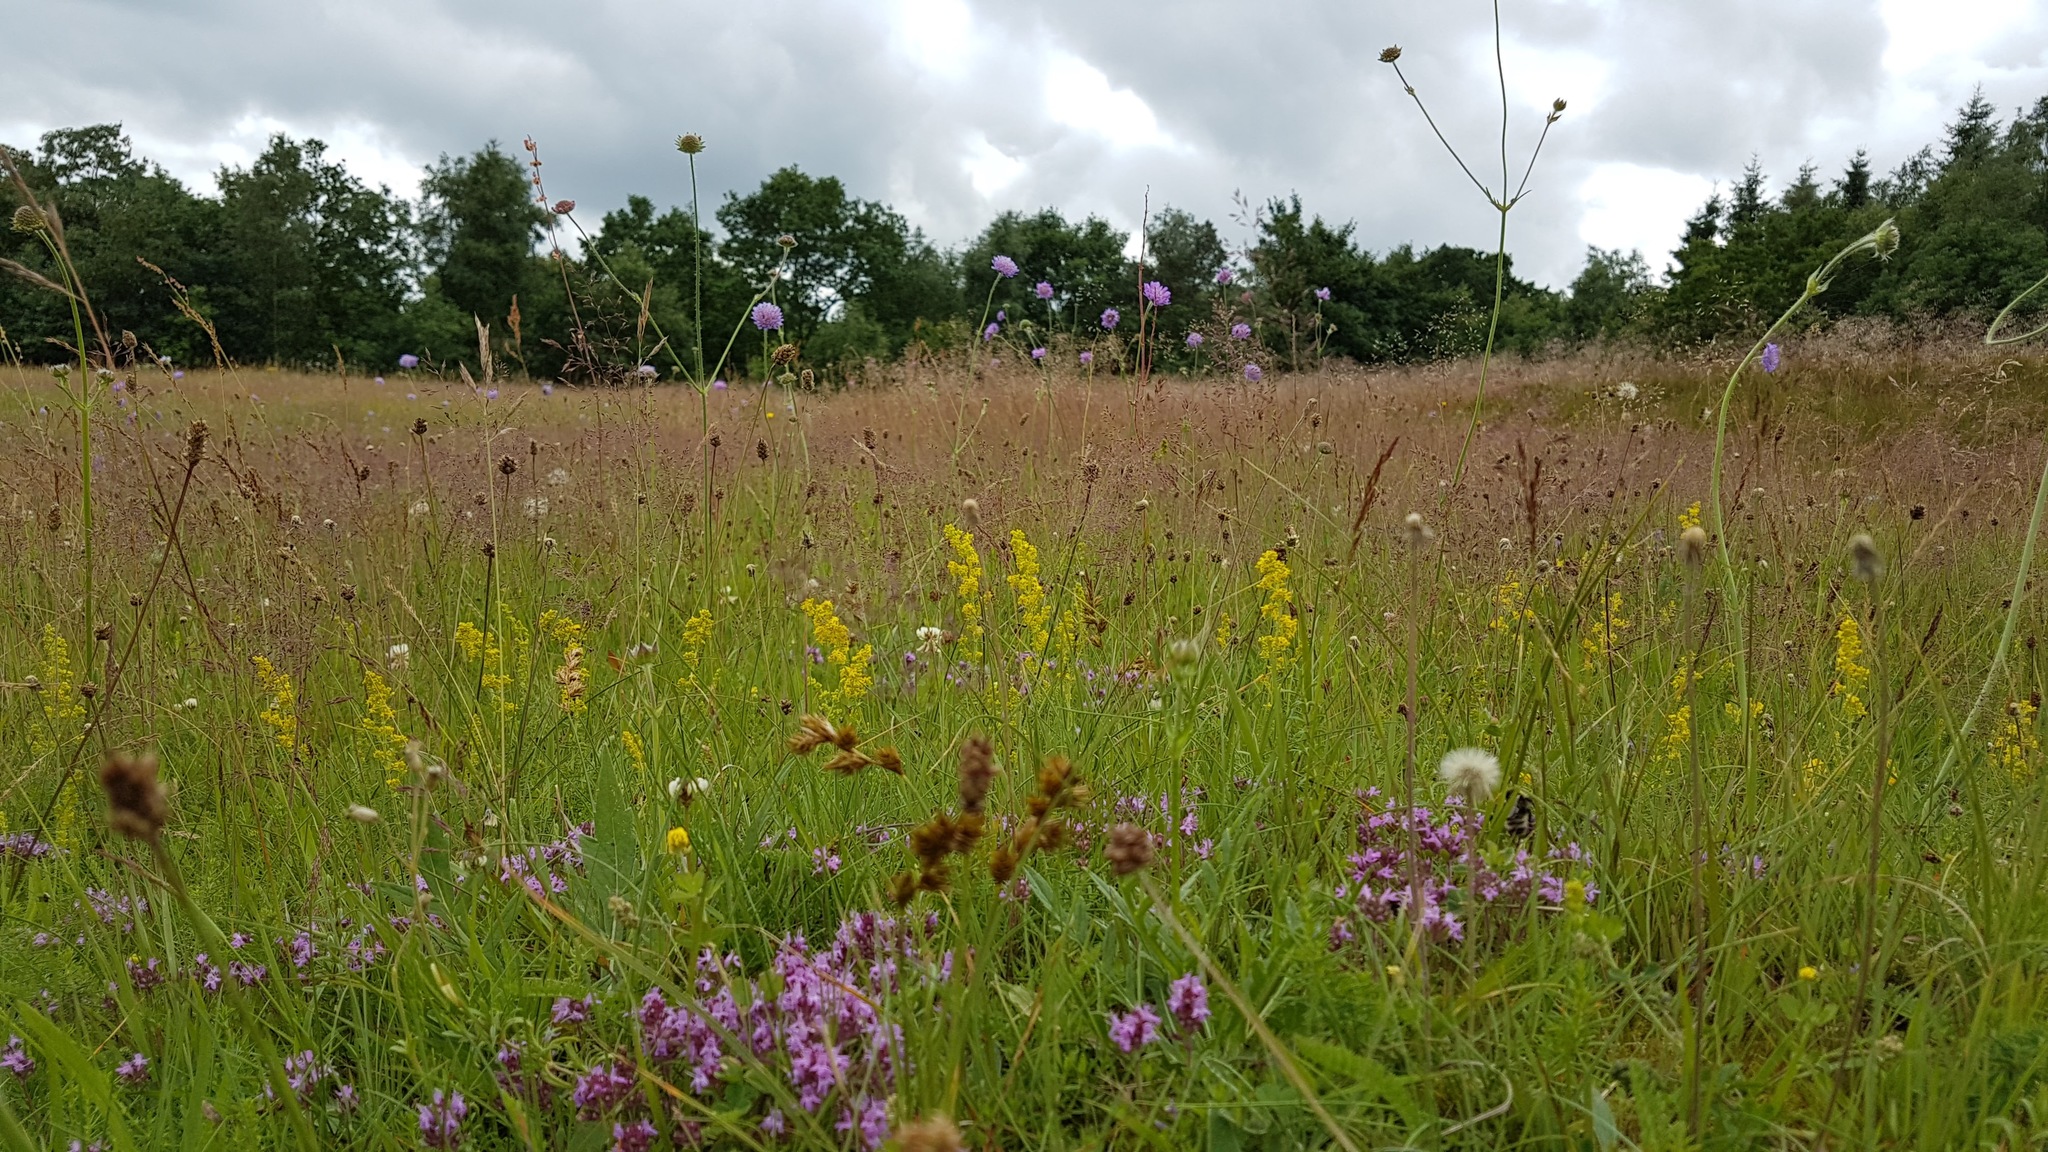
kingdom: Plantae
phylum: Tracheophyta
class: Magnoliopsida
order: Gentianales
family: Rubiaceae
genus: Galium
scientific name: Galium verum
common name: Lady's bedstraw
